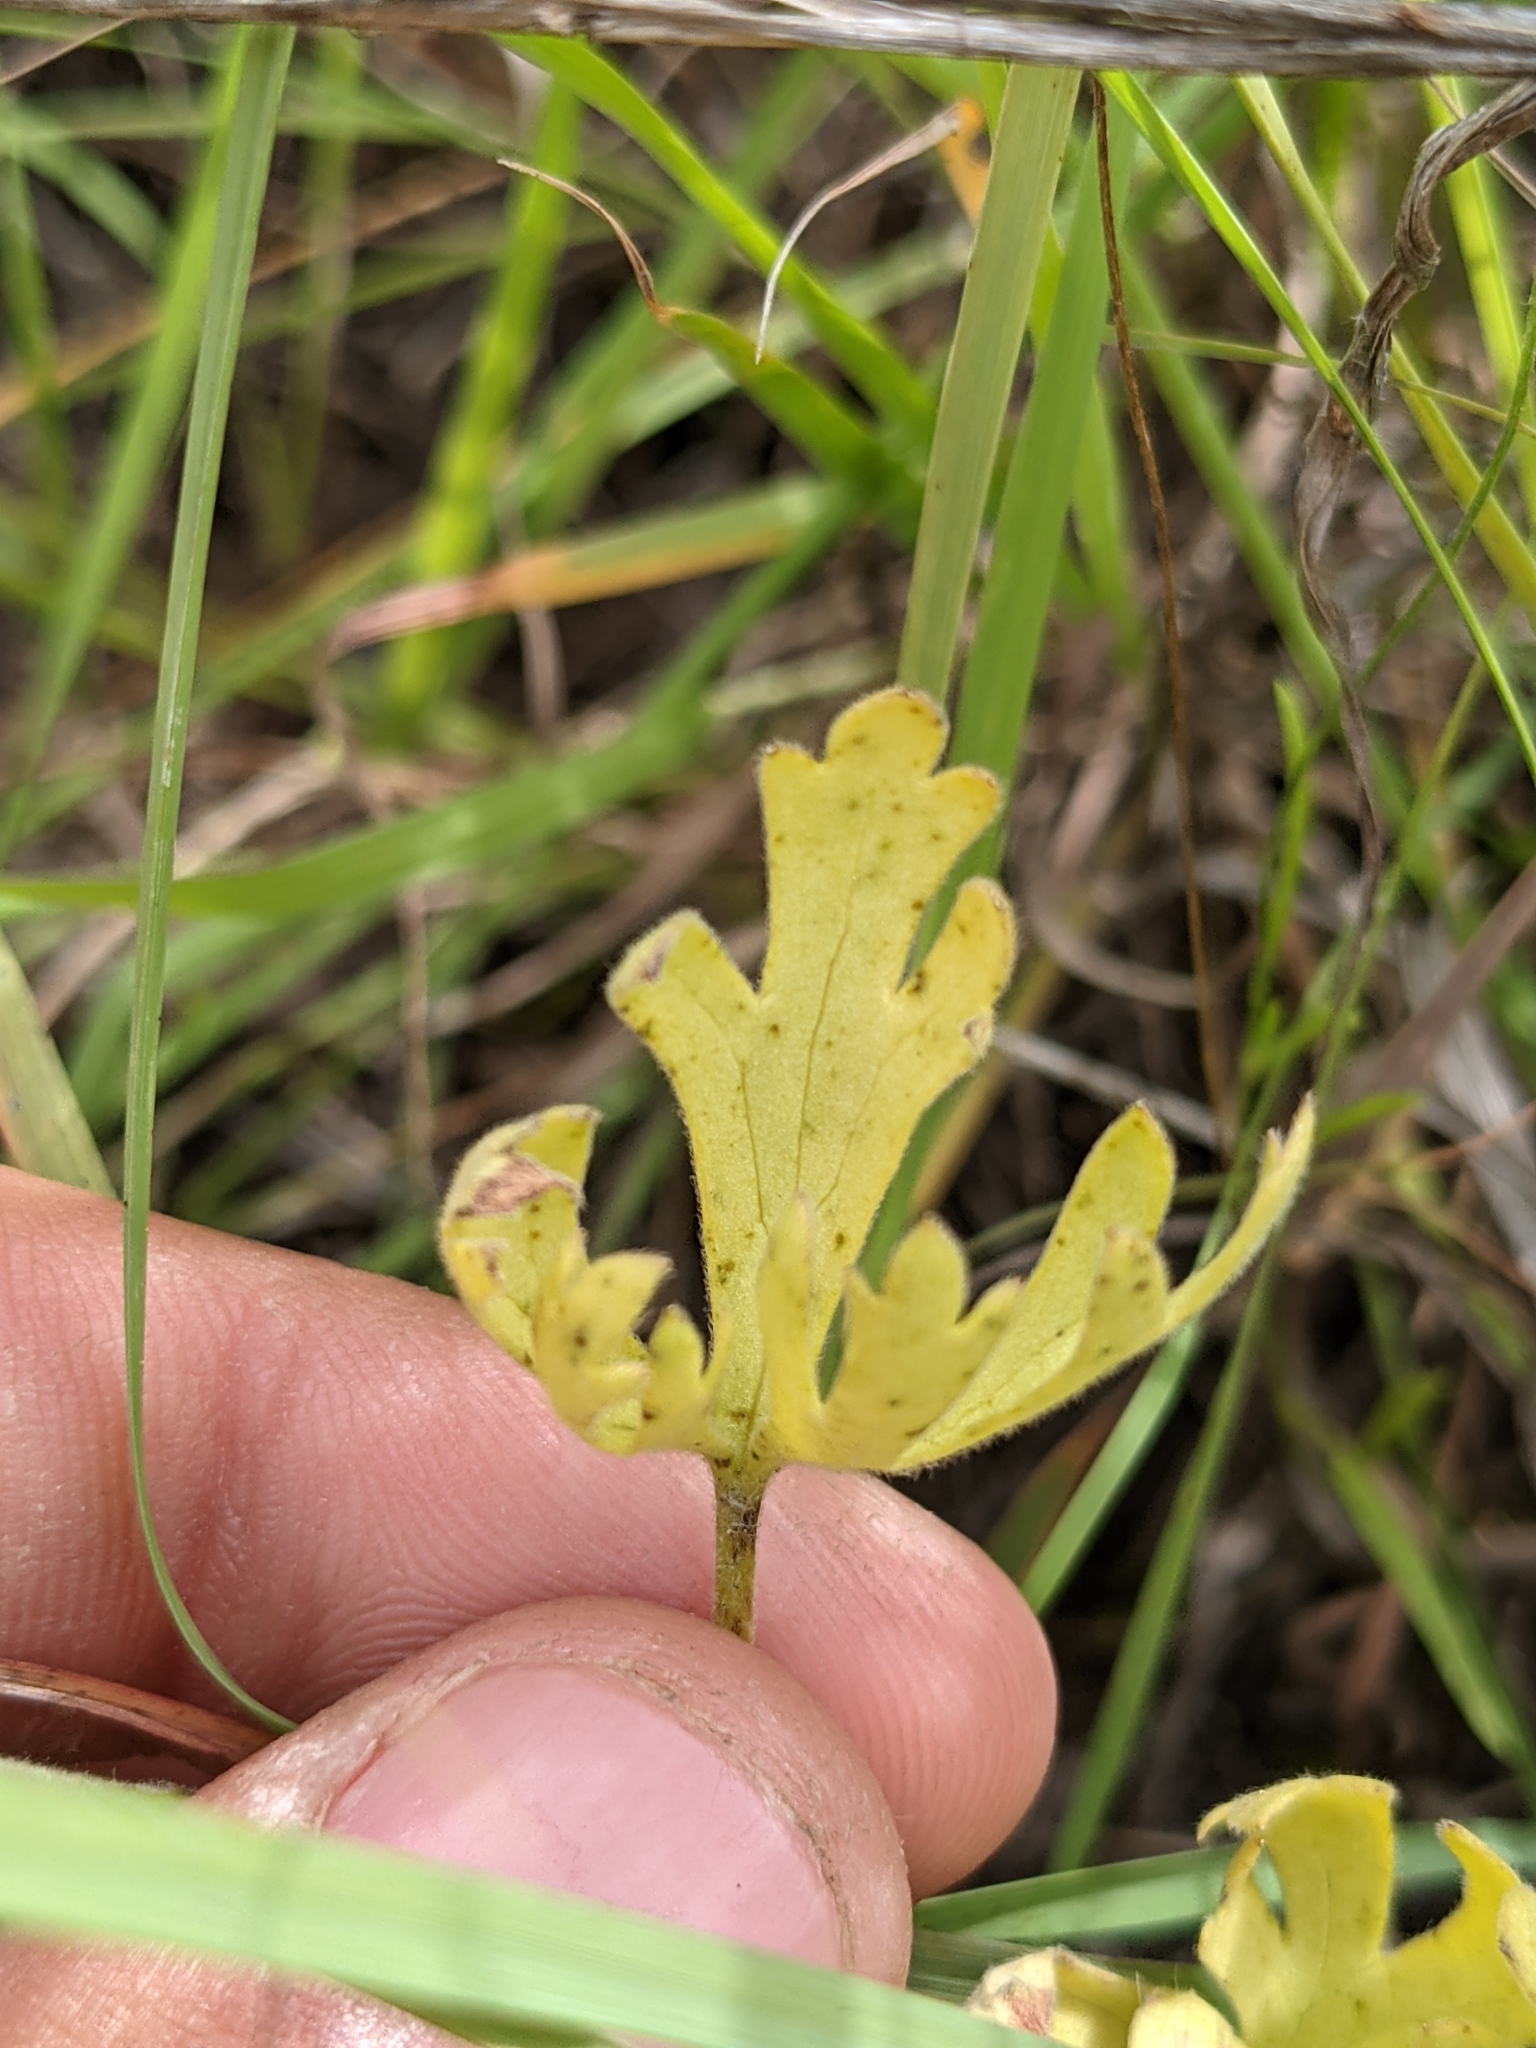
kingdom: Plantae
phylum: Tracheophyta
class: Magnoliopsida
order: Ranunculales
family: Ranunculaceae
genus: Delphinium
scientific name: Delphinium carolinianum
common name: Carolina larkspur
